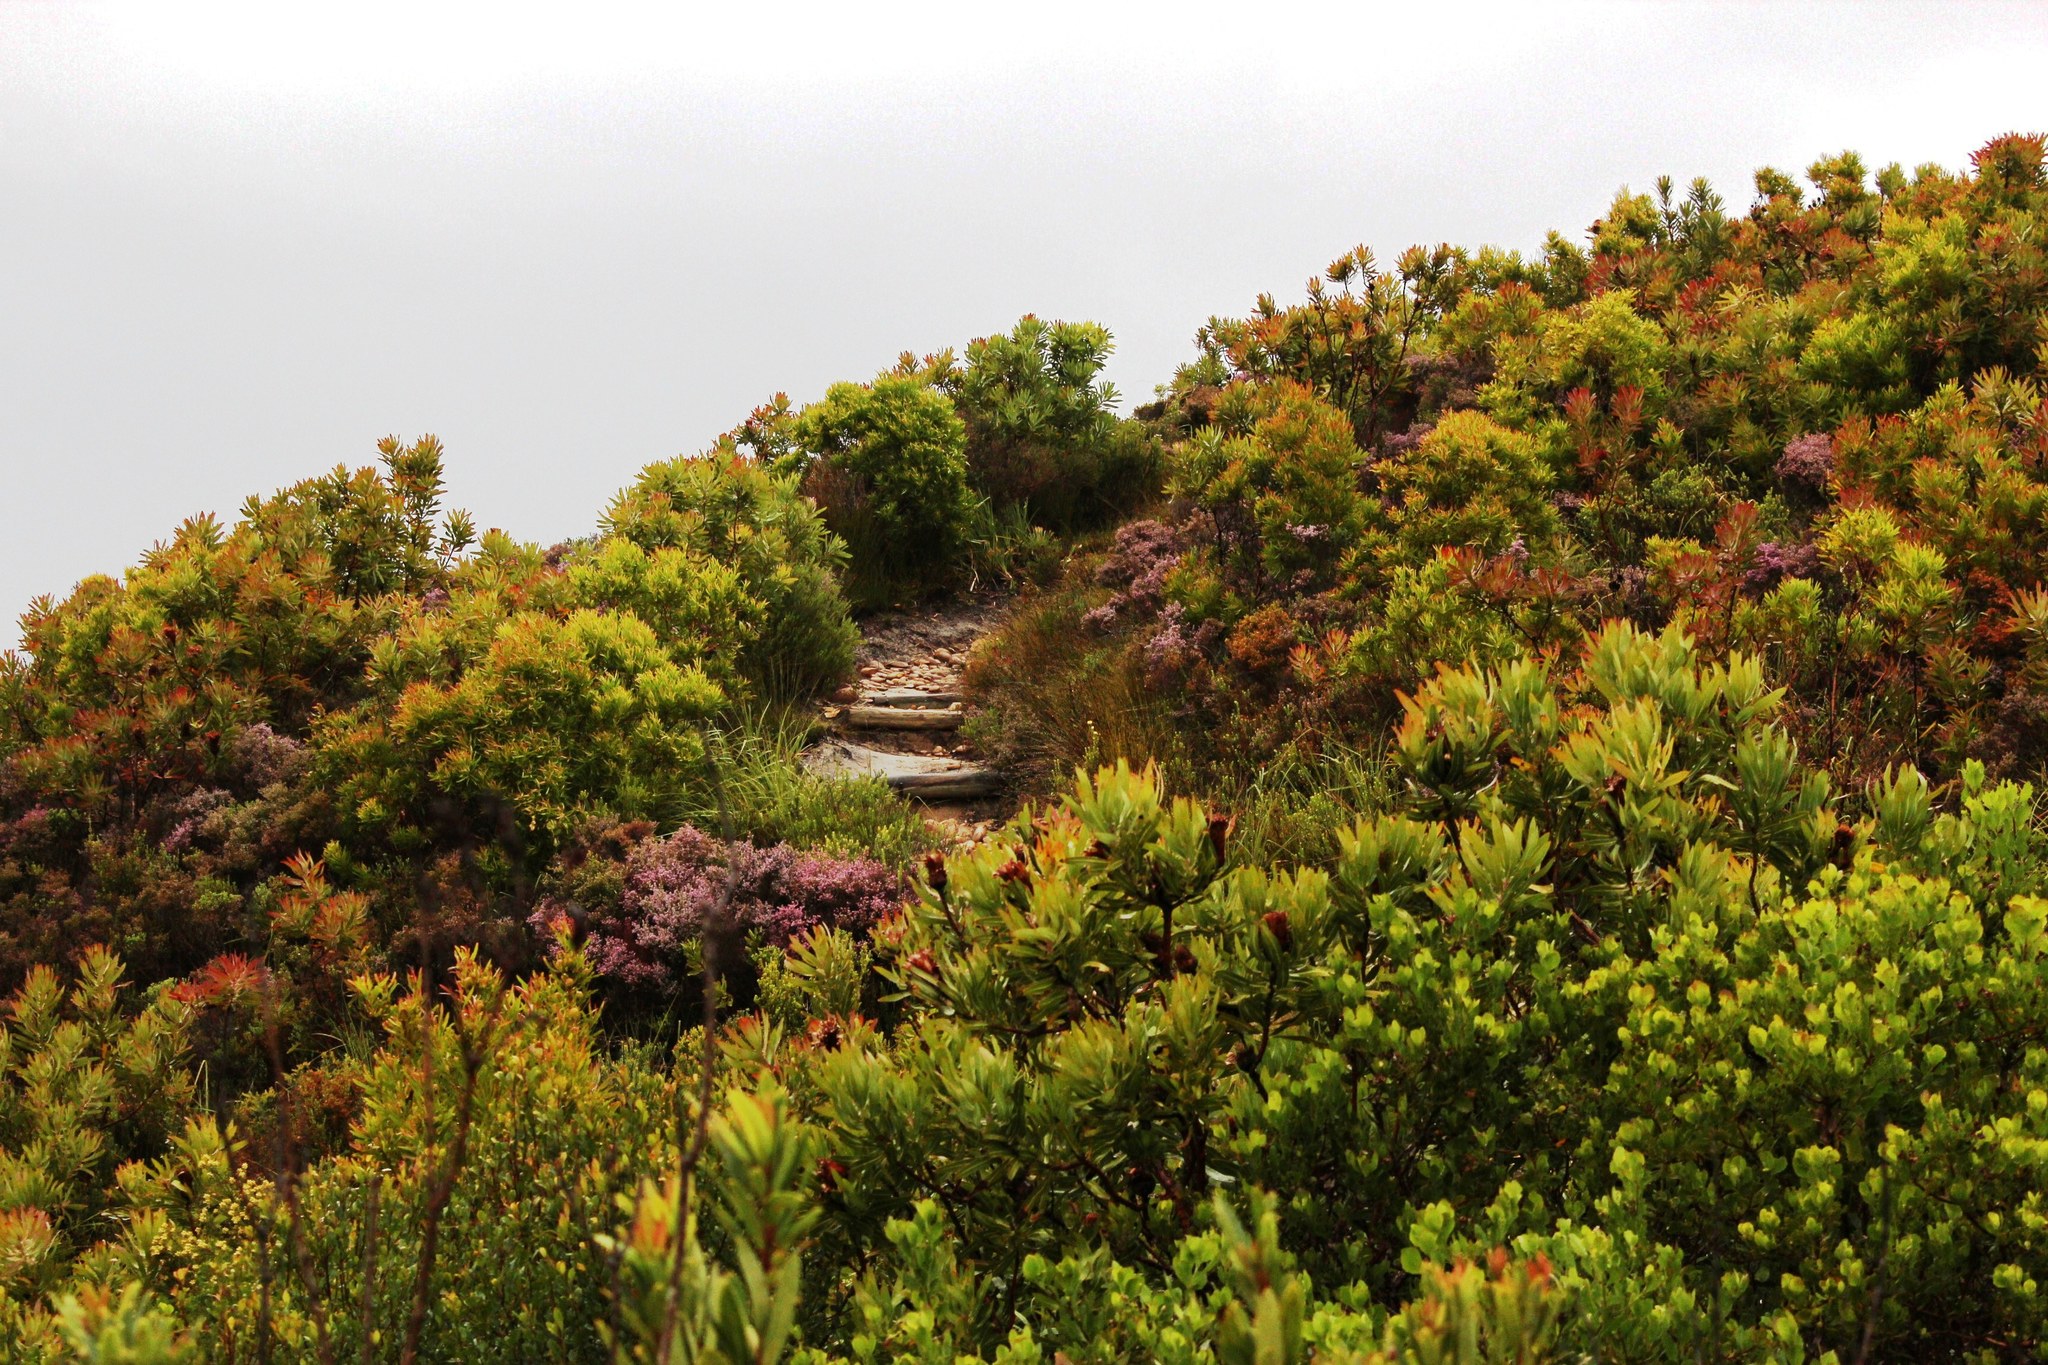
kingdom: Plantae
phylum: Tracheophyta
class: Magnoliopsida
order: Proteales
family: Proteaceae
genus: Protea
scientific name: Protea neriifolia
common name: Blue sugarbush
